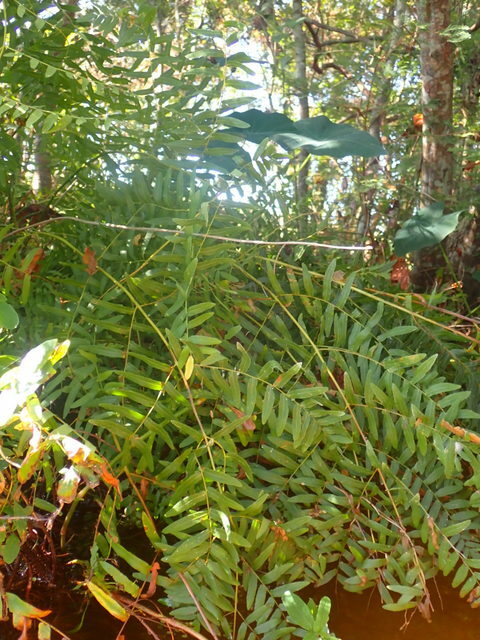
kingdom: Plantae
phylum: Tracheophyta
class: Polypodiopsida
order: Osmundales
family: Osmundaceae
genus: Osmunda
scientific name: Osmunda spectabilis
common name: American royal fern
